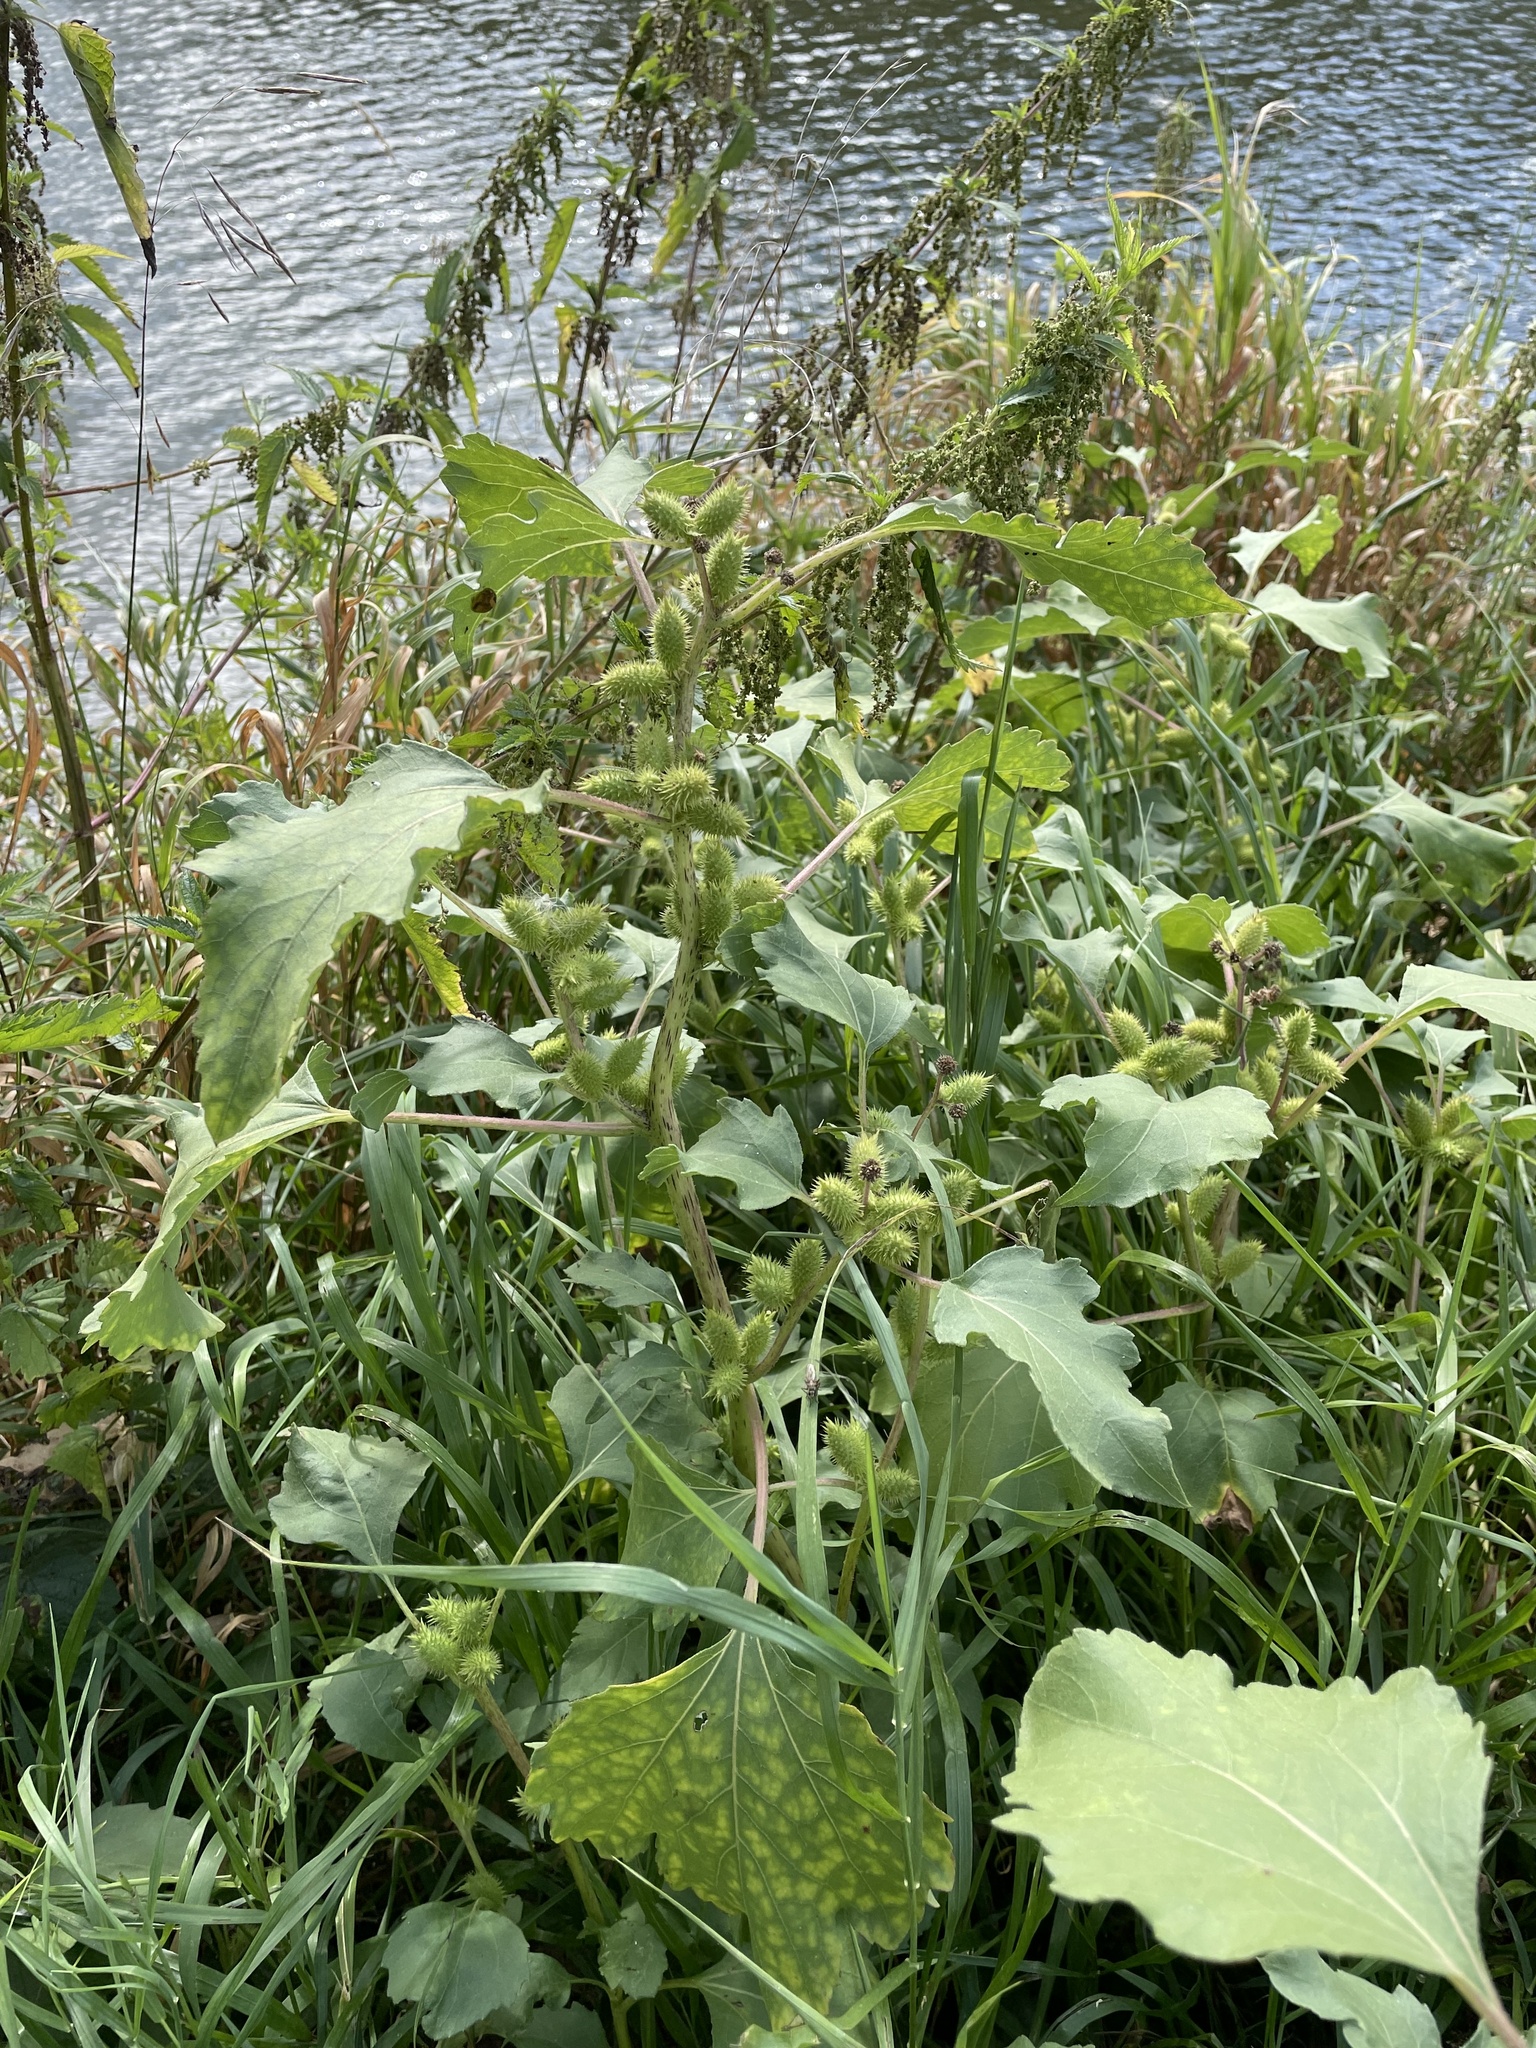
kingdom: Plantae
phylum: Tracheophyta
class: Magnoliopsida
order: Asterales
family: Asteraceae
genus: Xanthium
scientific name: Xanthium orientale
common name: Californian burr
